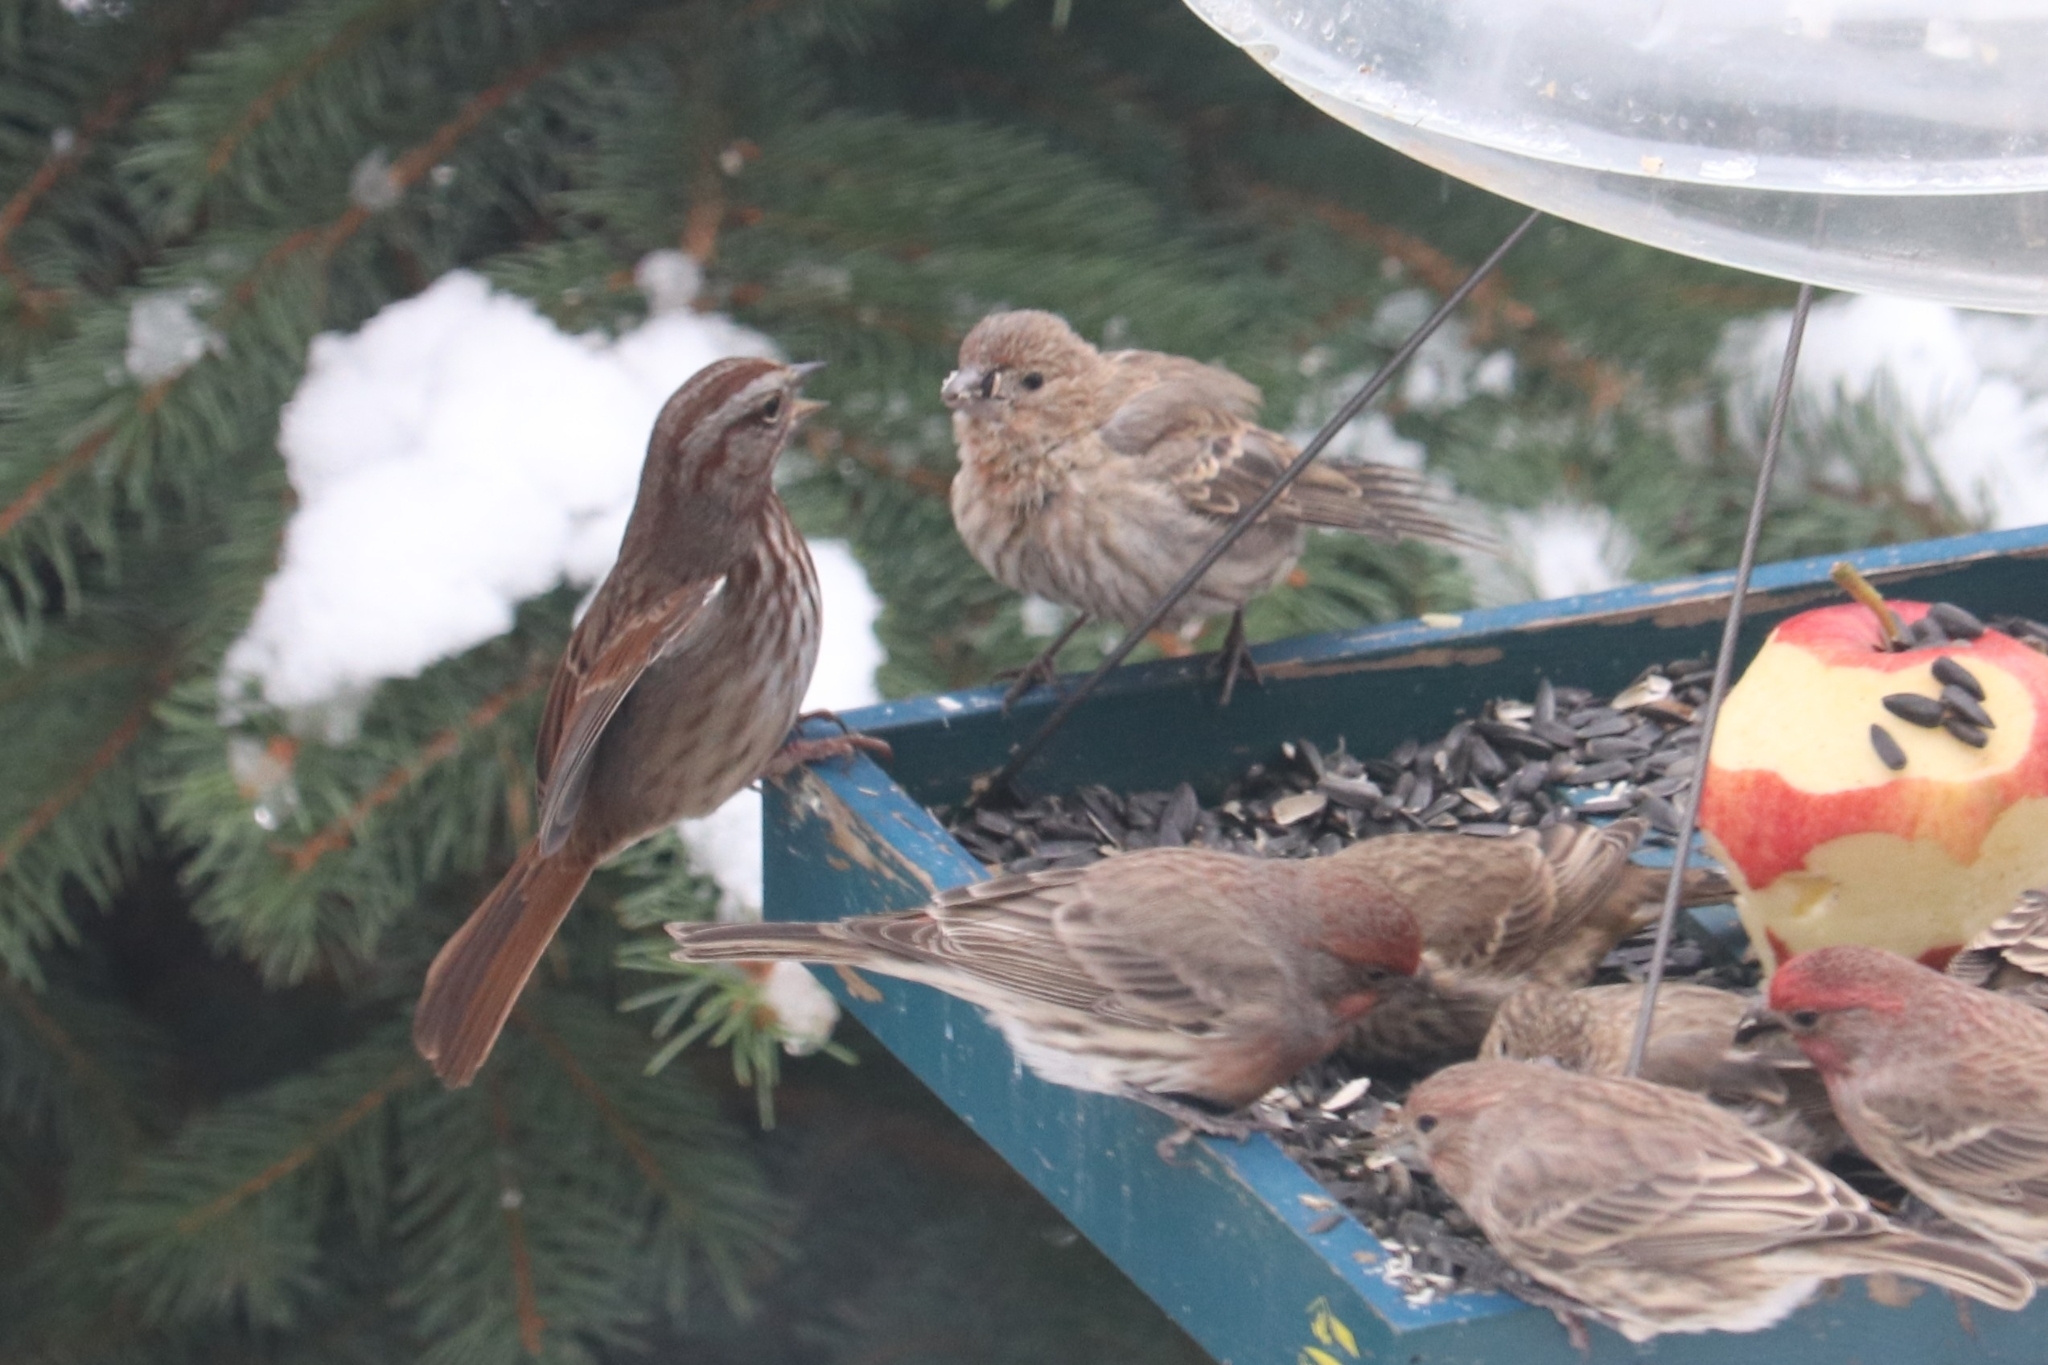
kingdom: Animalia
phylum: Chordata
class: Aves
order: Passeriformes
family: Passerellidae
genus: Melospiza
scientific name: Melospiza melodia
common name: Song sparrow
